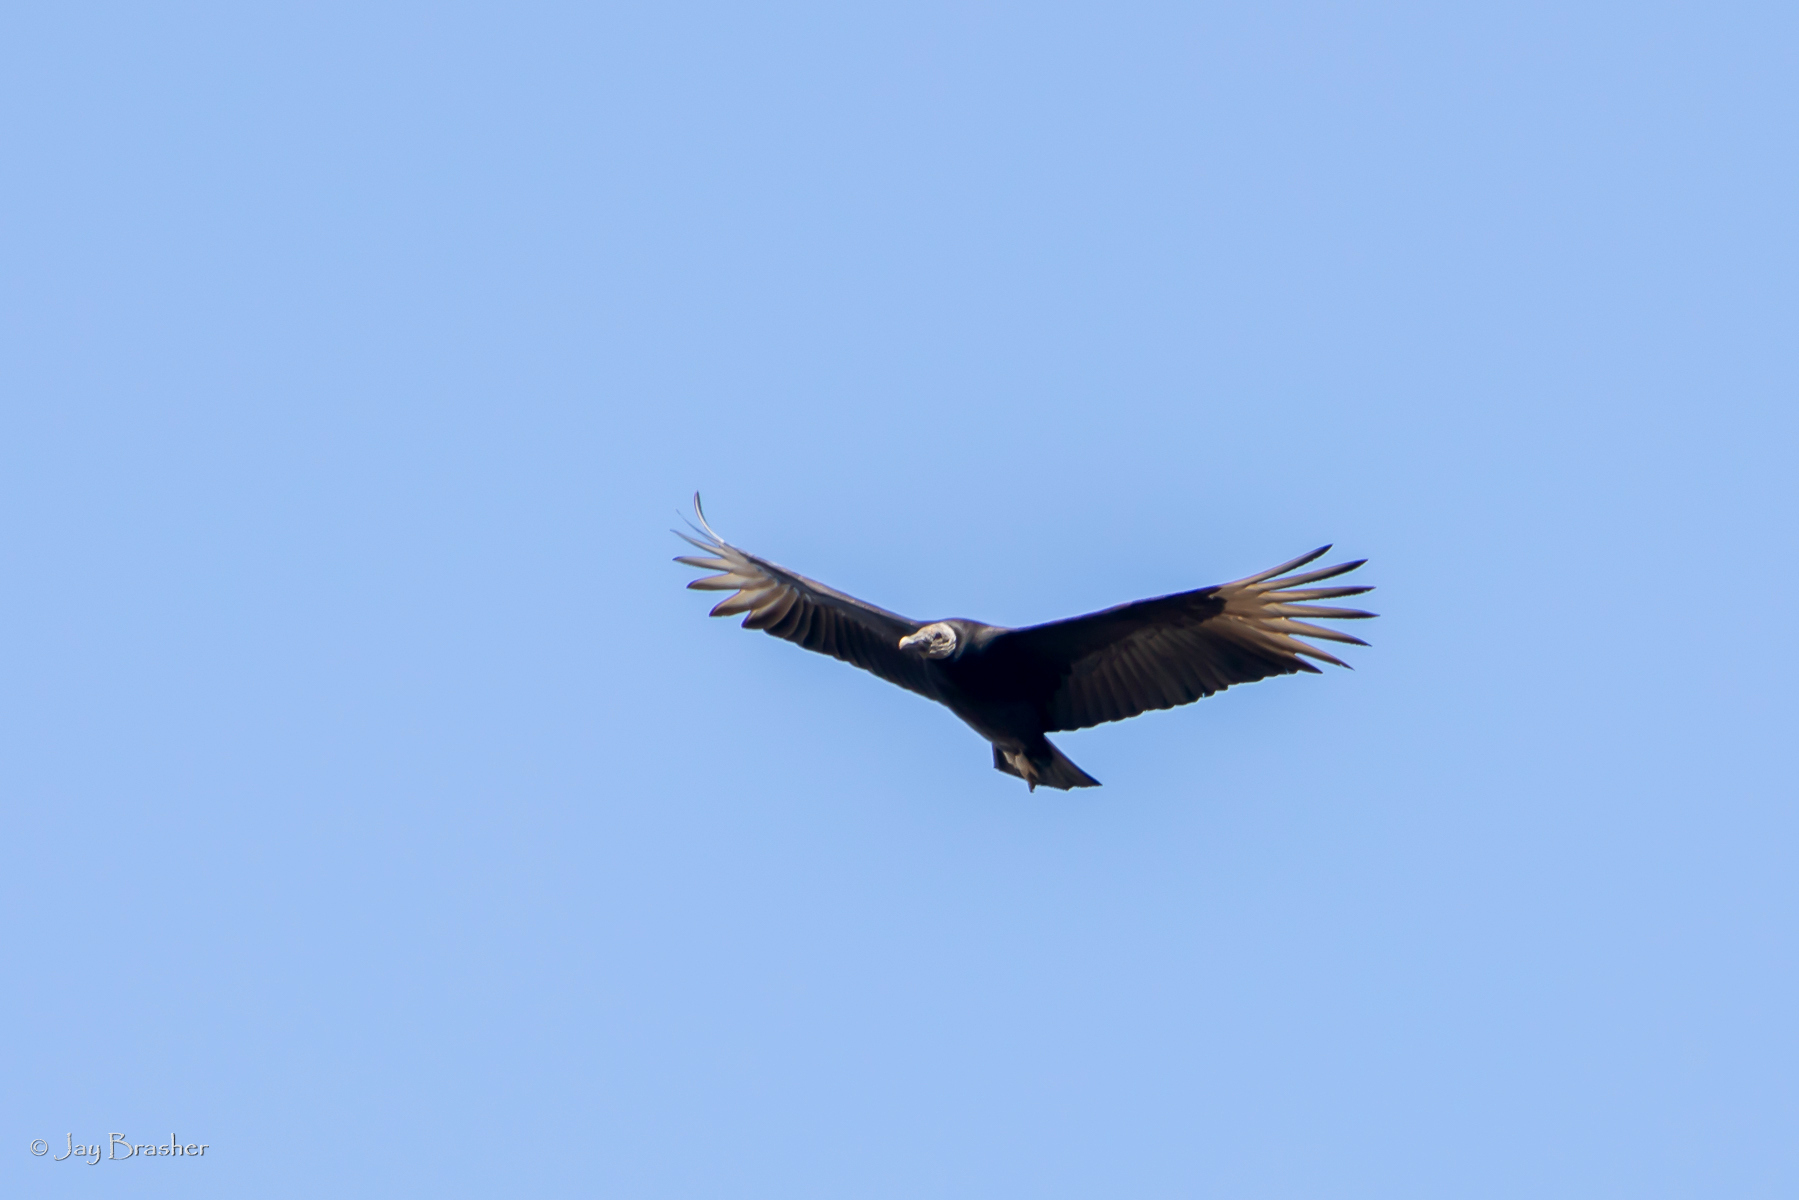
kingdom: Animalia
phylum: Chordata
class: Aves
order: Accipitriformes
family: Cathartidae
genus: Coragyps
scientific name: Coragyps atratus
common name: Black vulture
